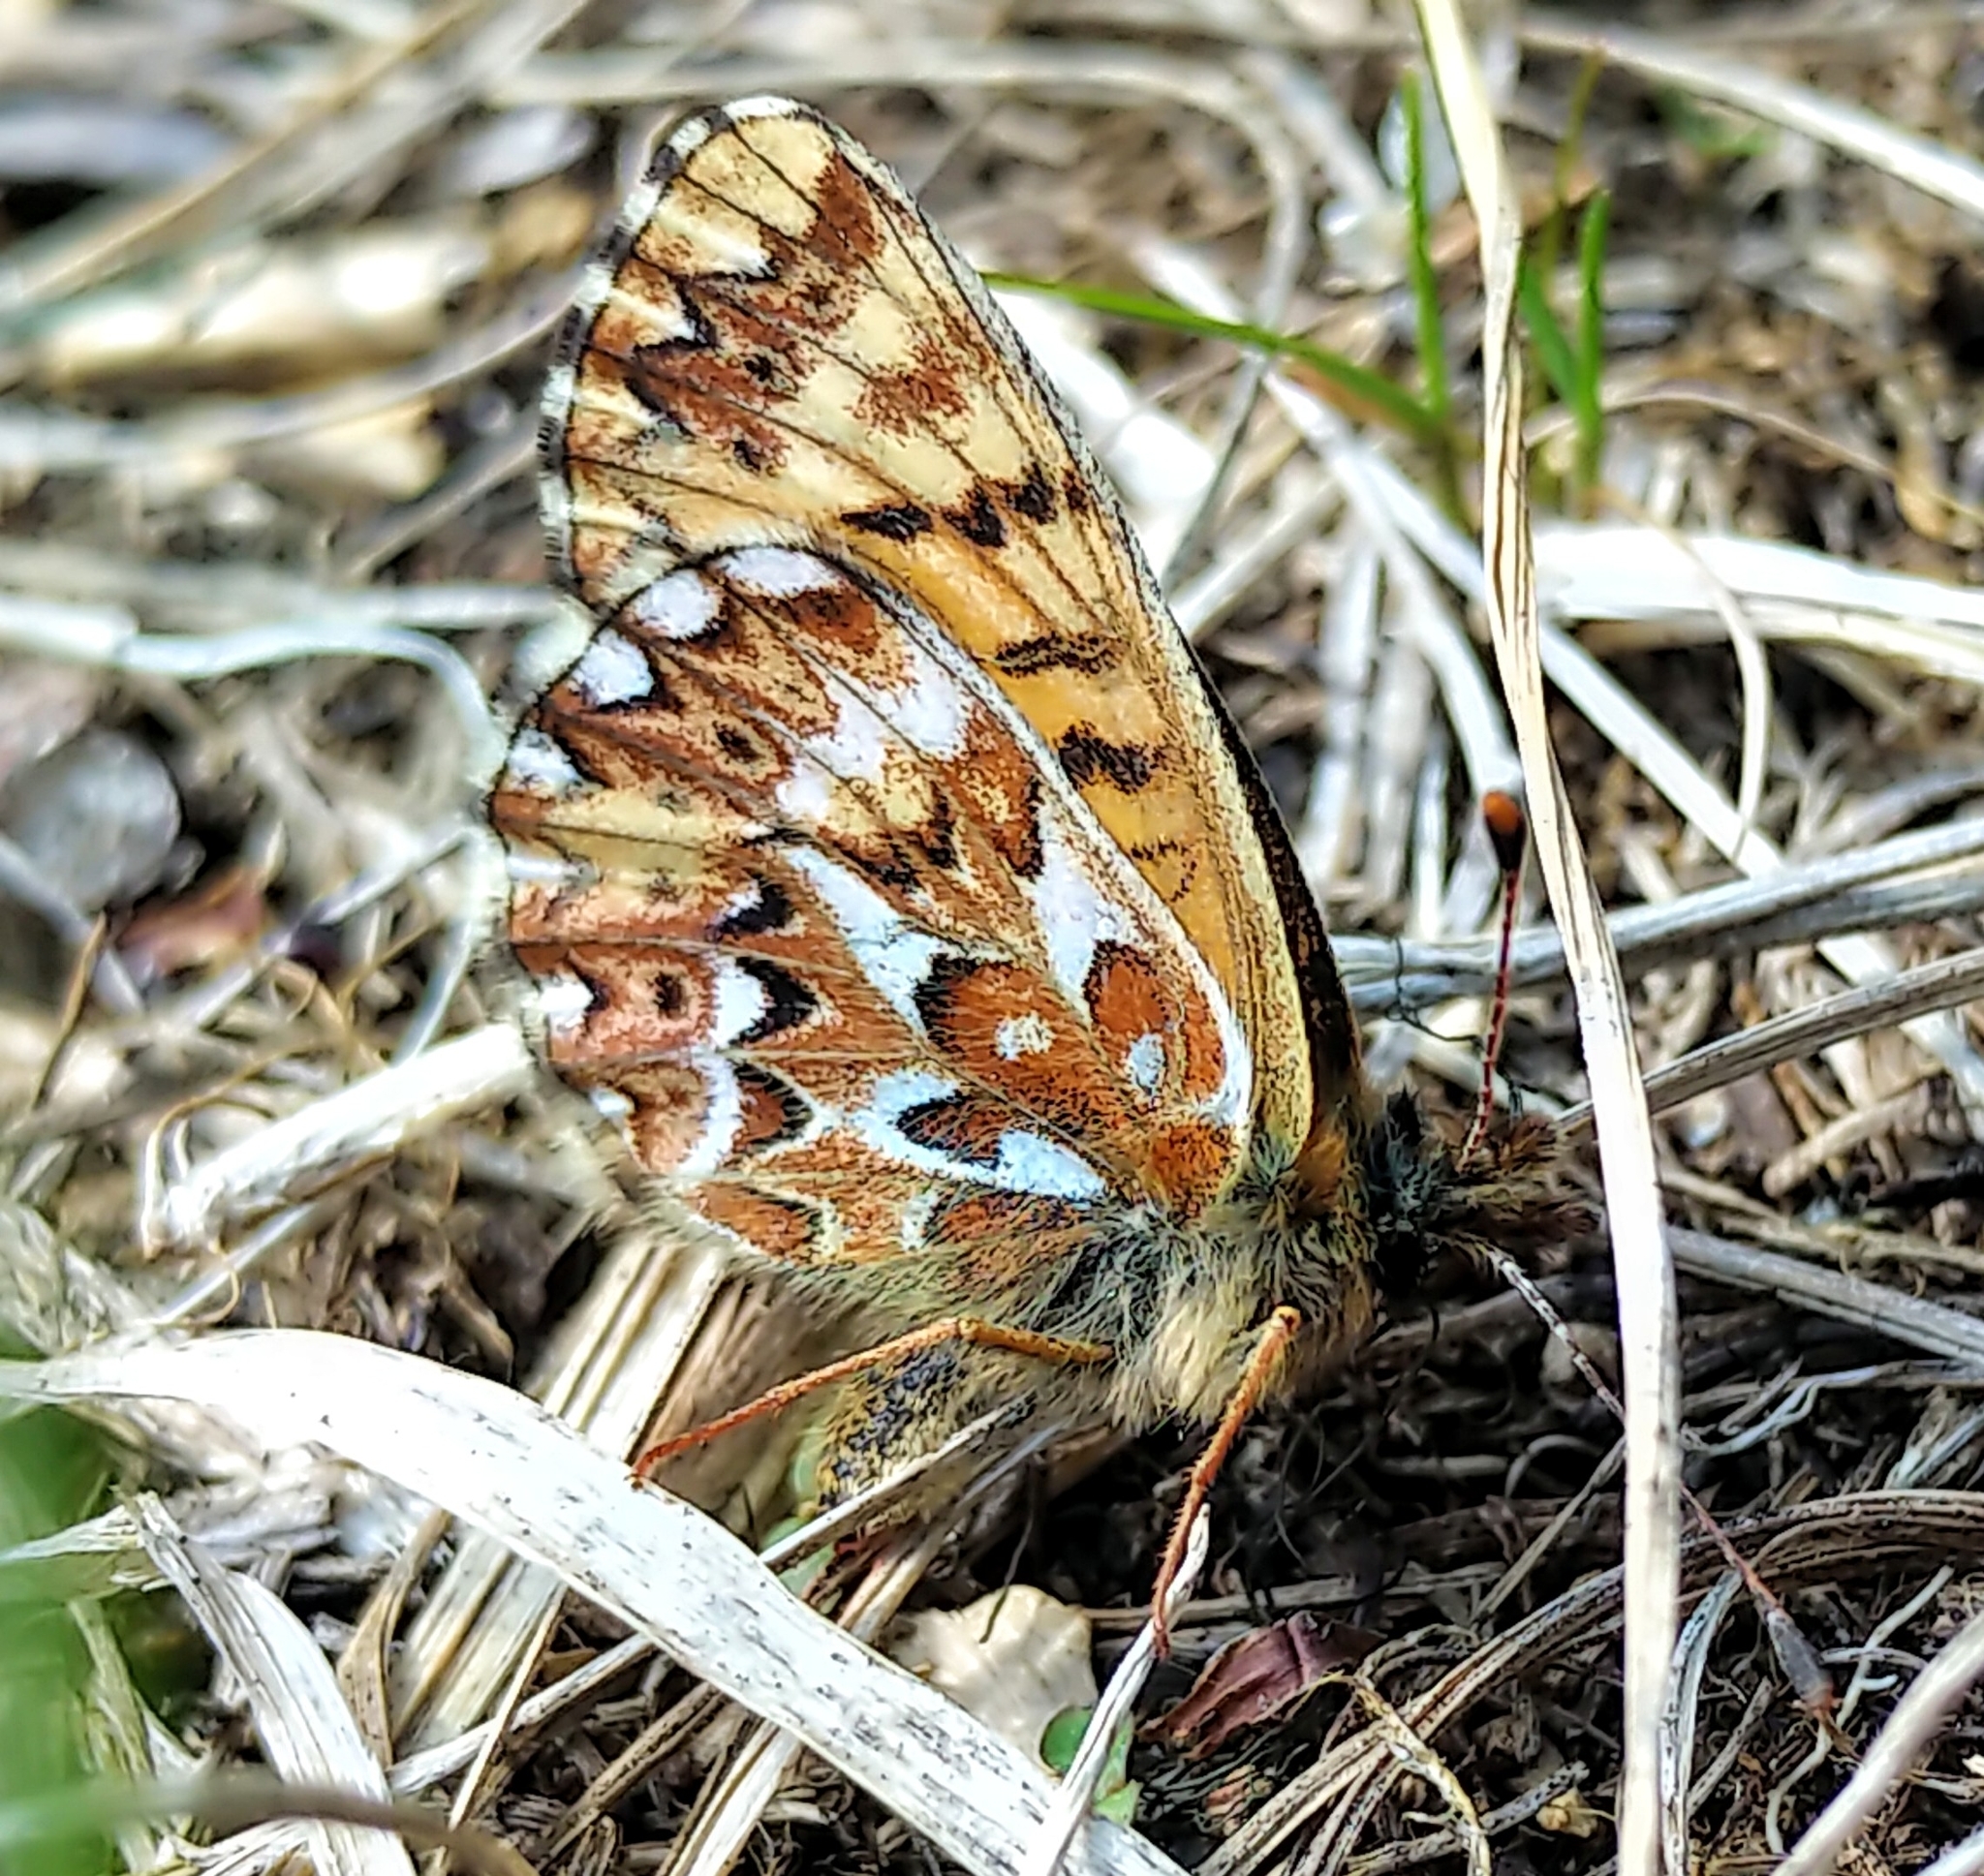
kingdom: Animalia
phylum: Arthropoda
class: Insecta
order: Lepidoptera
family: Nymphalidae
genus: Boloria
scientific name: Boloria freija
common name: Freija fritillary
